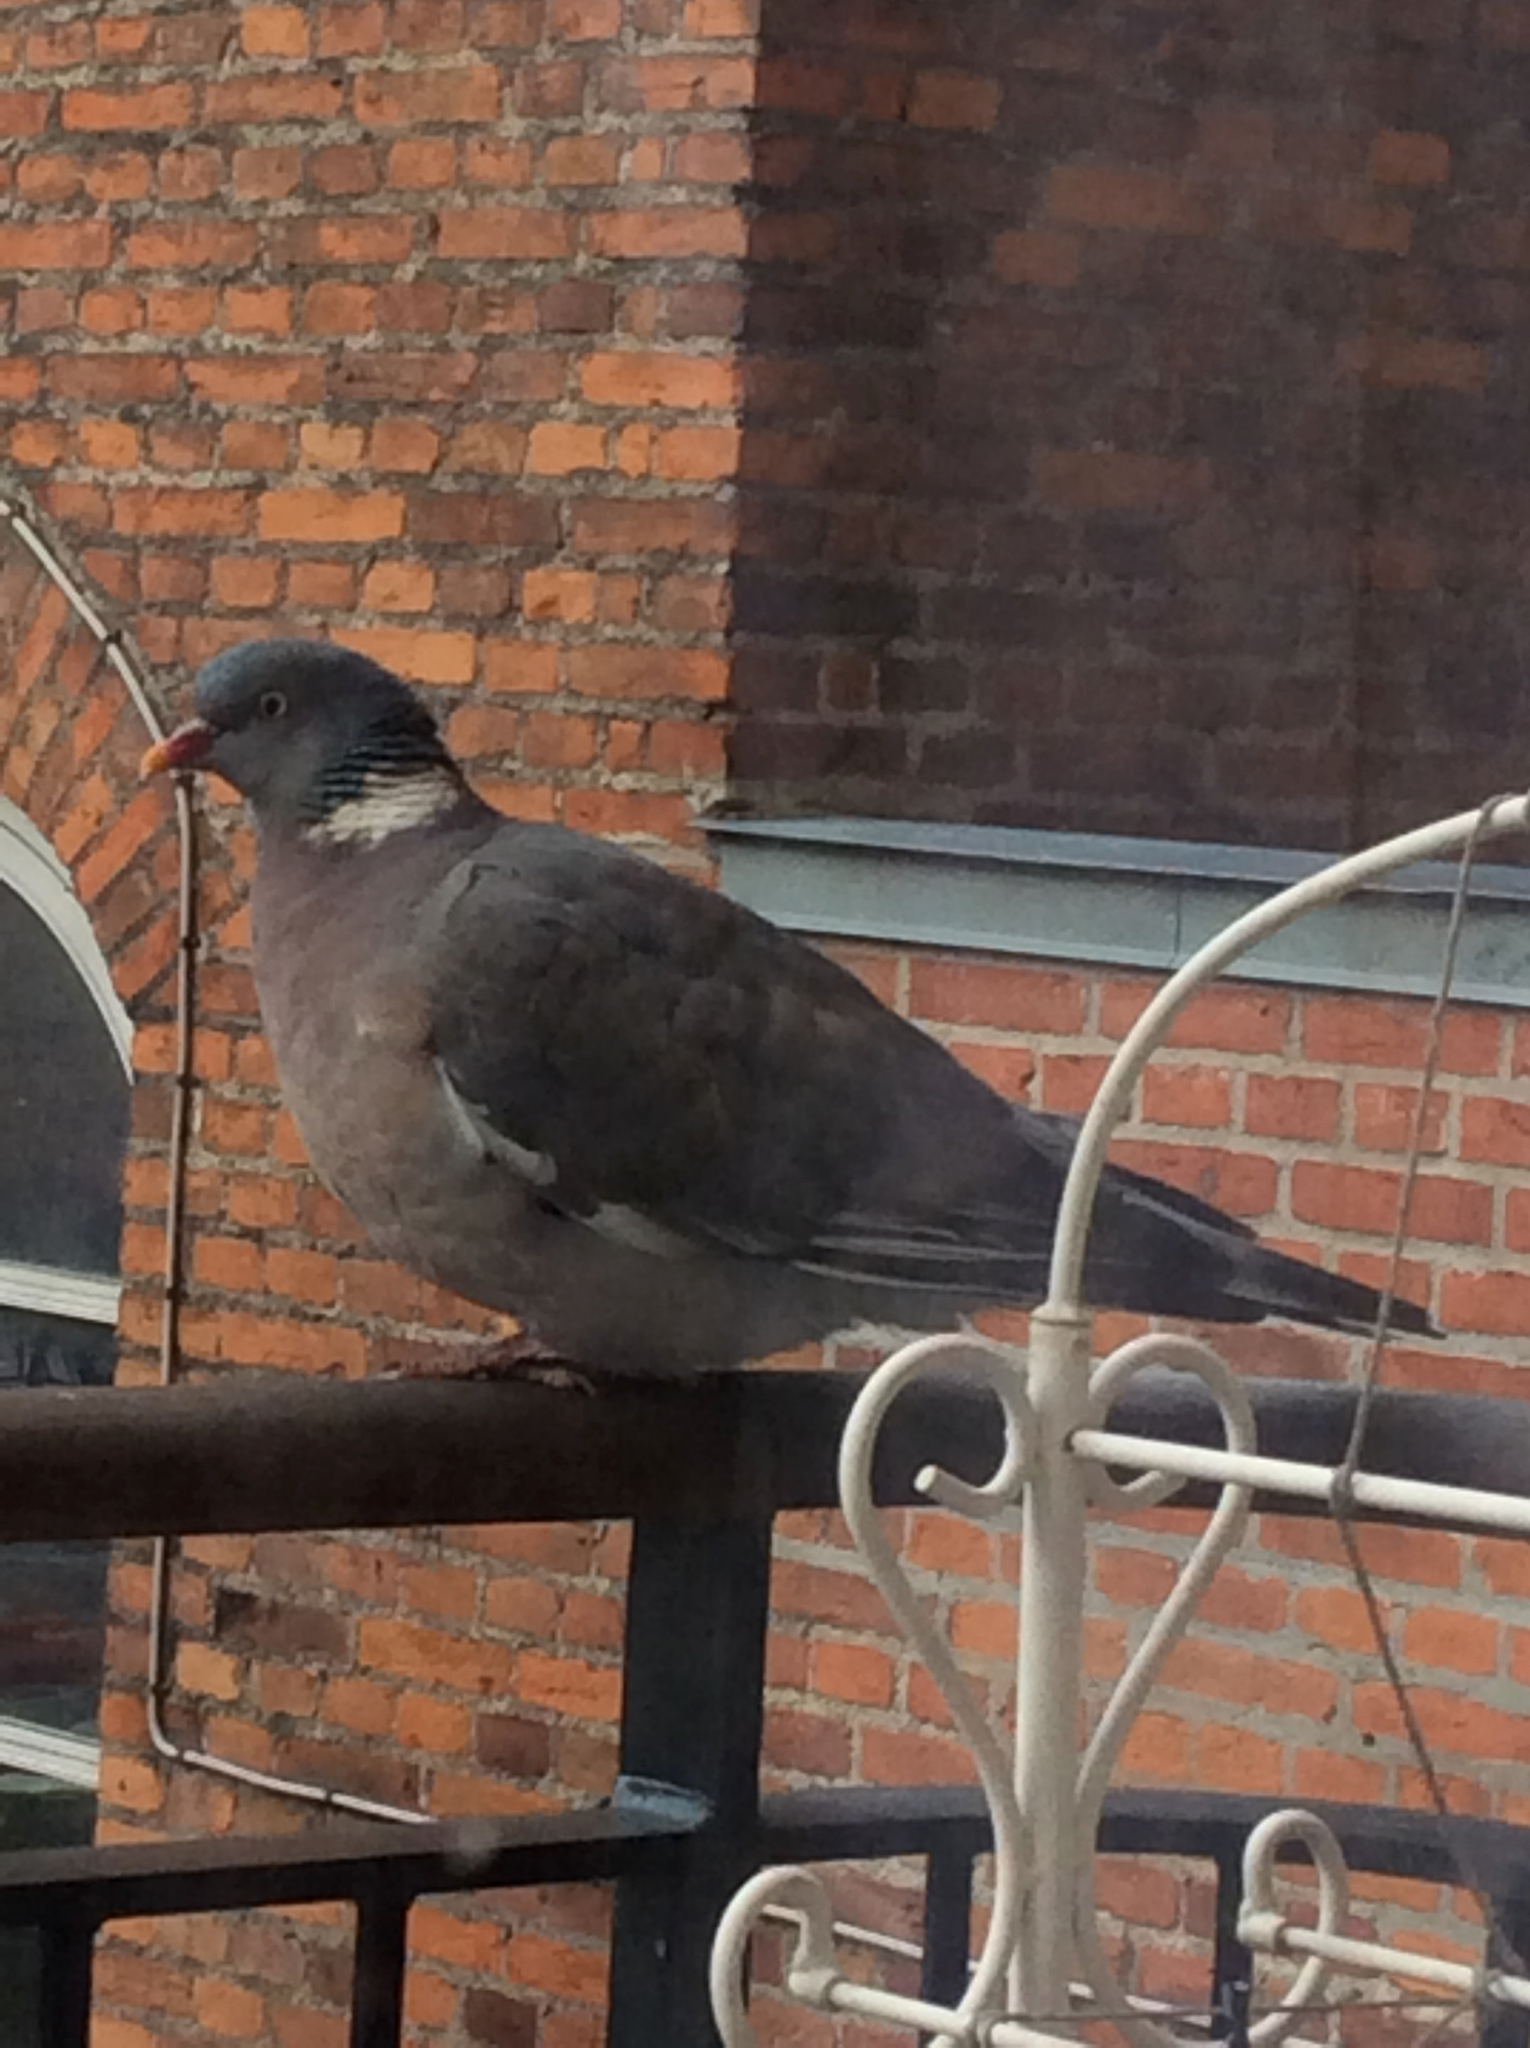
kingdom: Animalia
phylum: Chordata
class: Aves
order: Columbiformes
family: Columbidae
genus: Columba
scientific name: Columba palumbus
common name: Common wood pigeon
